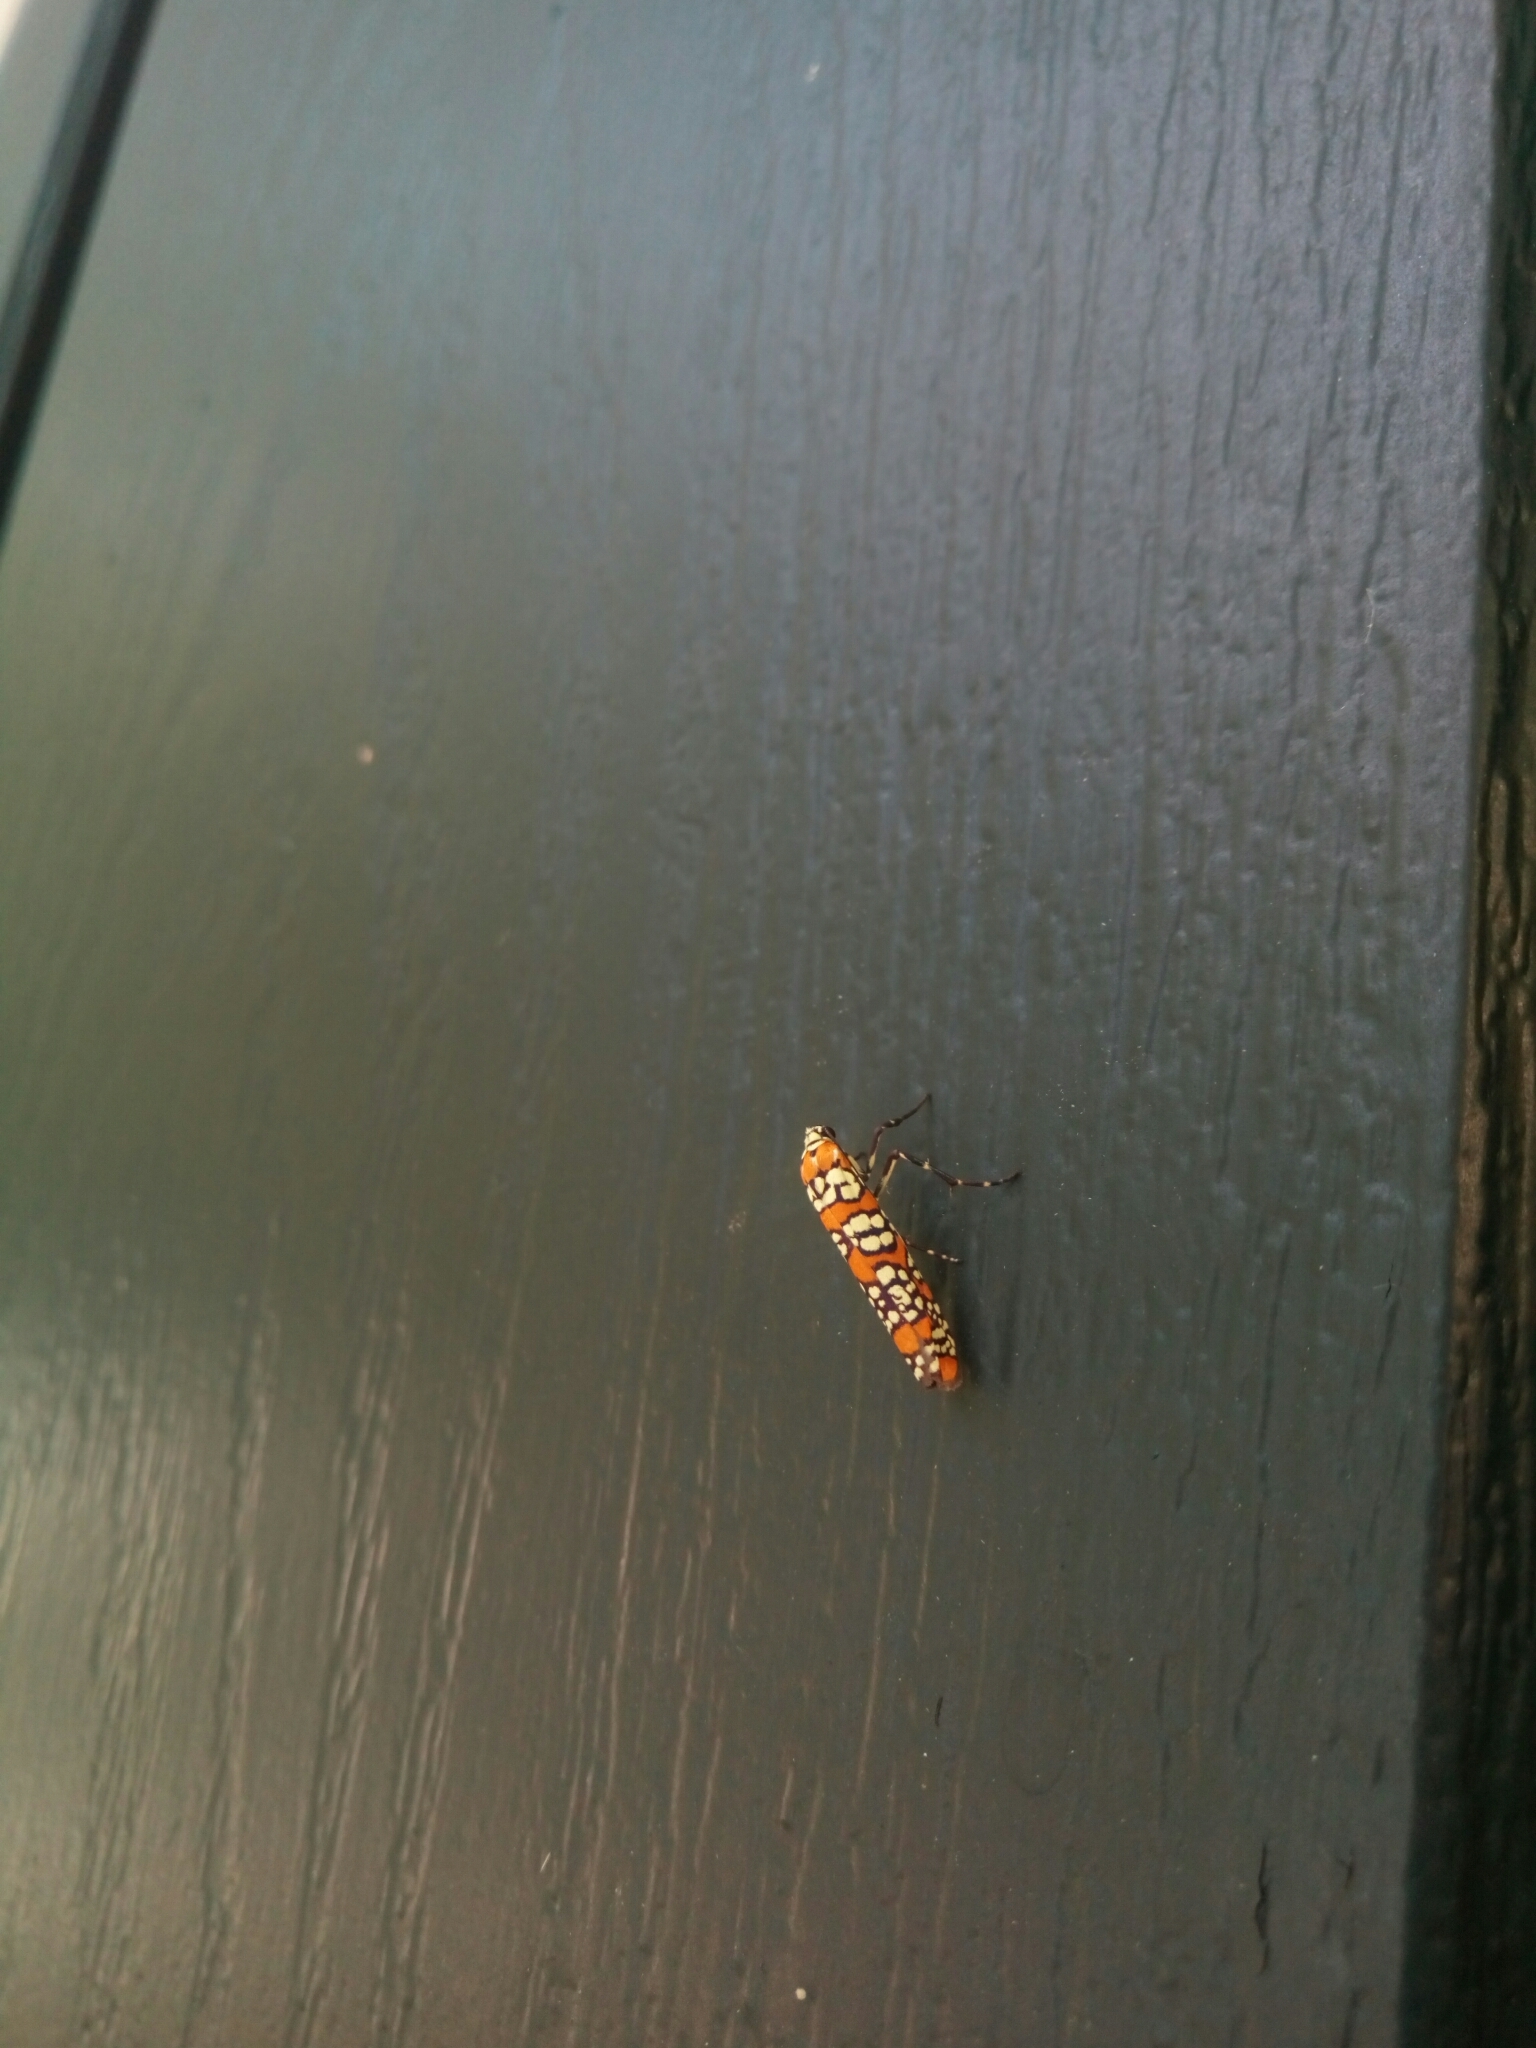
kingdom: Animalia
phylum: Arthropoda
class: Insecta
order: Lepidoptera
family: Attevidae
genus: Atteva
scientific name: Atteva punctella
